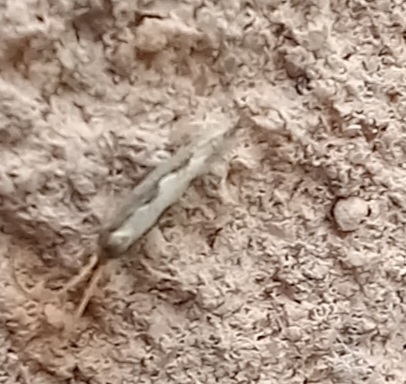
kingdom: Animalia
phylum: Arthropoda
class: Insecta
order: Lepidoptera
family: Plutellidae
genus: Plutella
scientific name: Plutella xylostella
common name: Diamond-back moth
